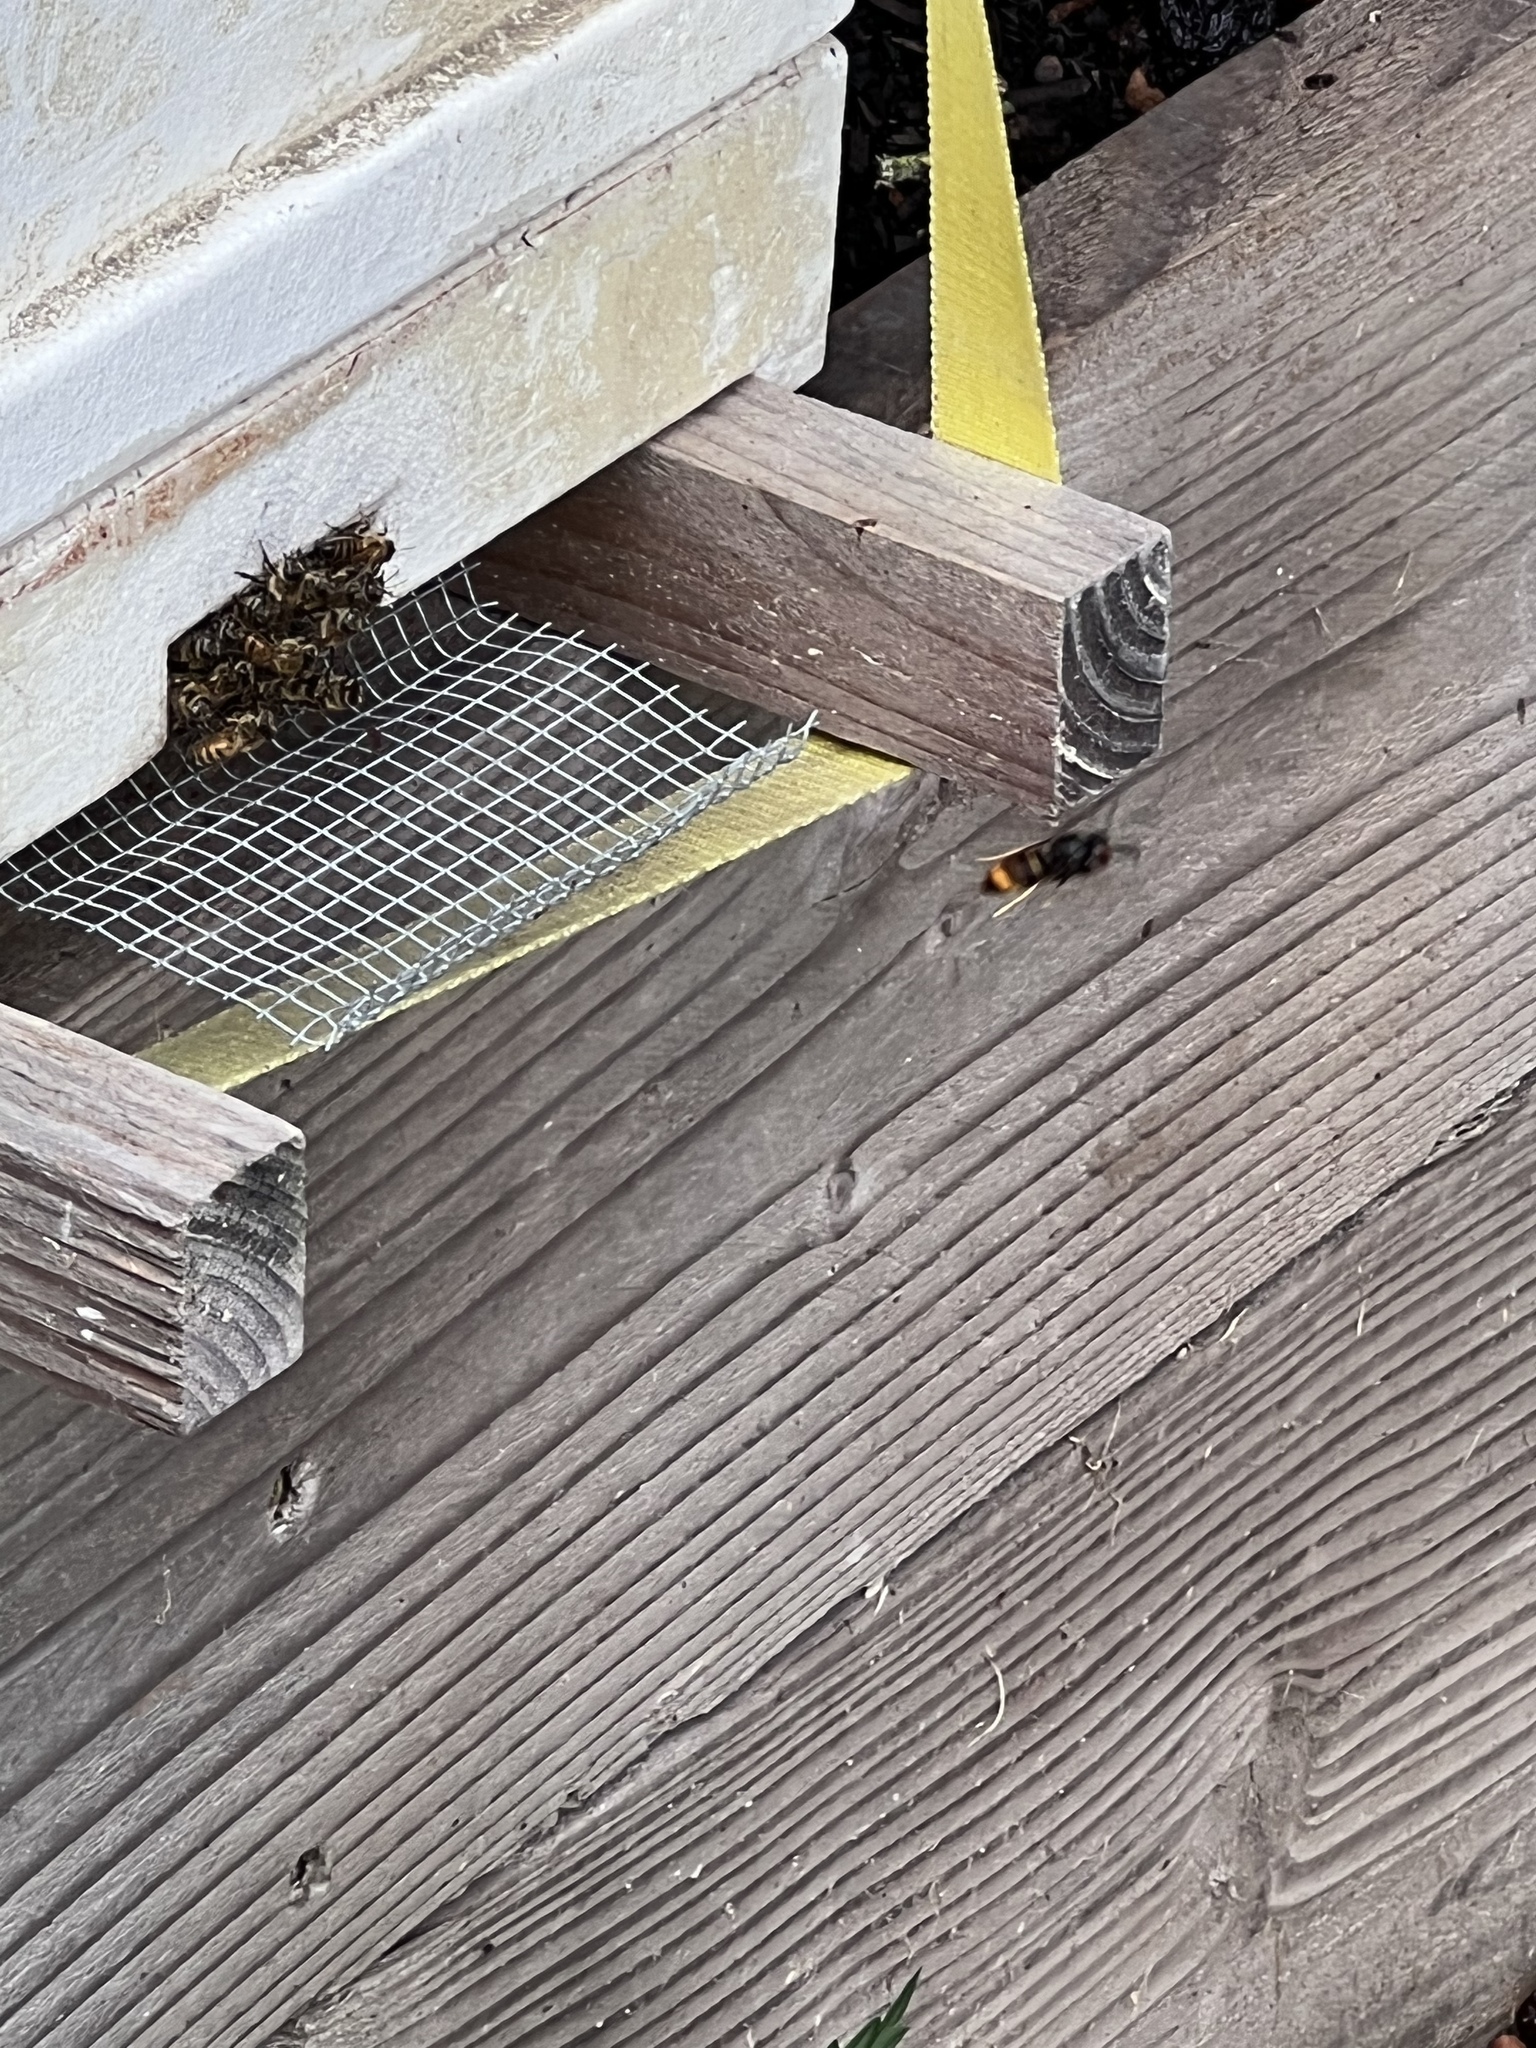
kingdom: Animalia
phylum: Arthropoda
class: Insecta
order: Hymenoptera
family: Vespidae
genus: Vespa
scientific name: Vespa velutina
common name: Asian hornet
